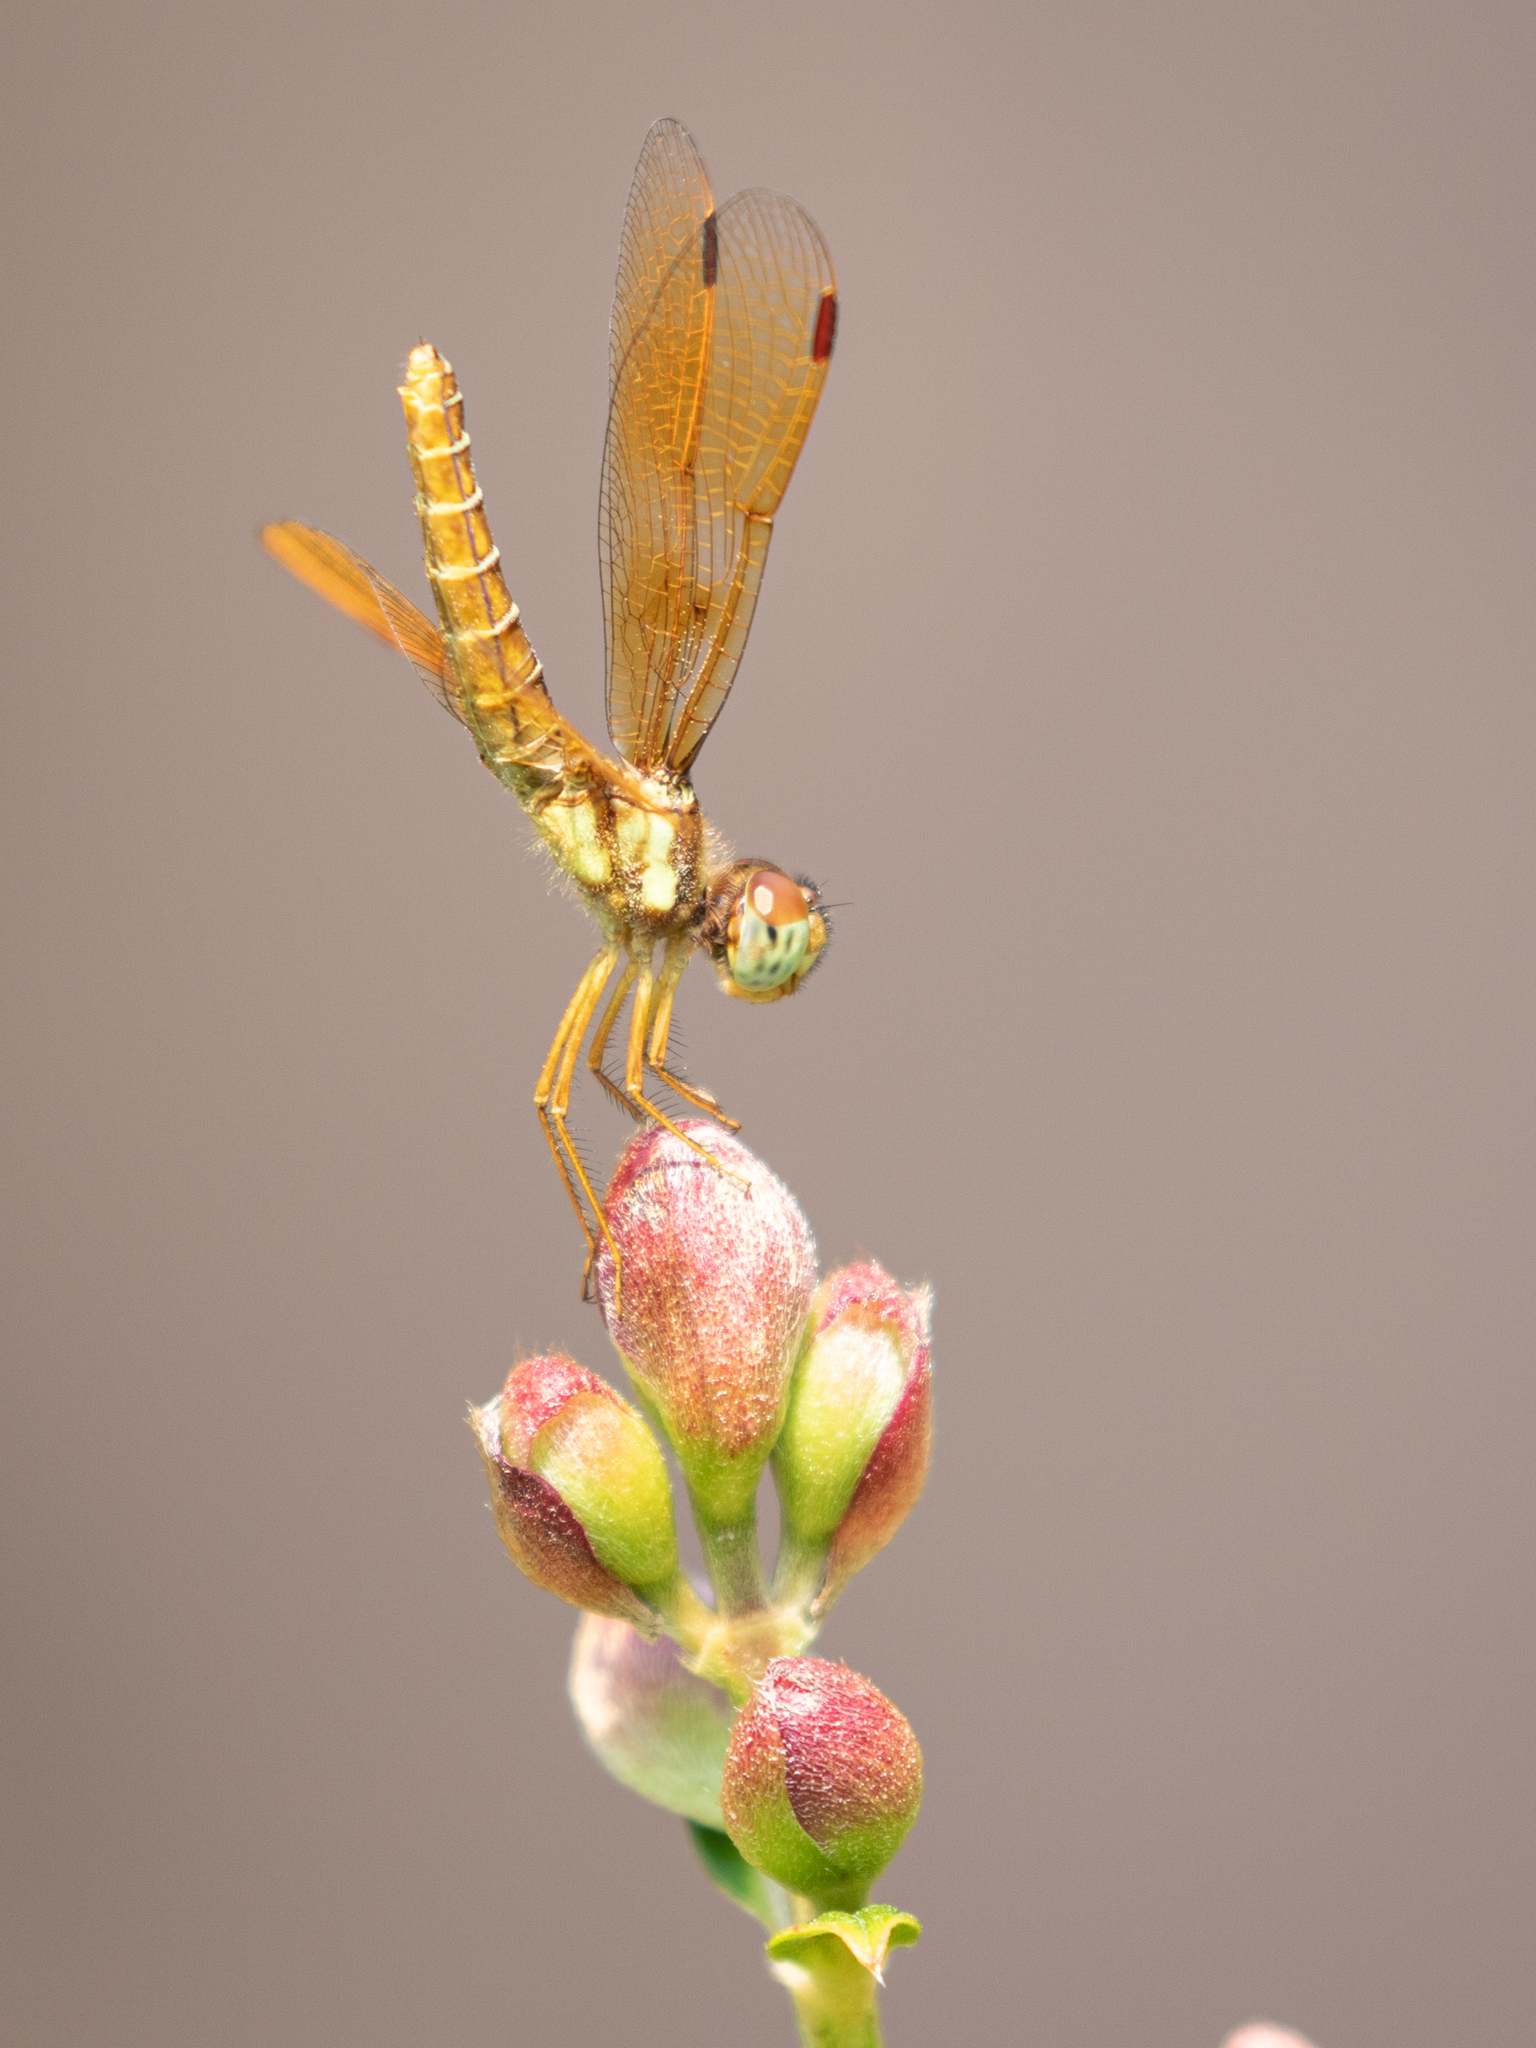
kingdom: Animalia
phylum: Arthropoda
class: Insecta
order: Odonata
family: Libellulidae
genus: Perithemis
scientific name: Perithemis tenera
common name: Eastern amberwing
